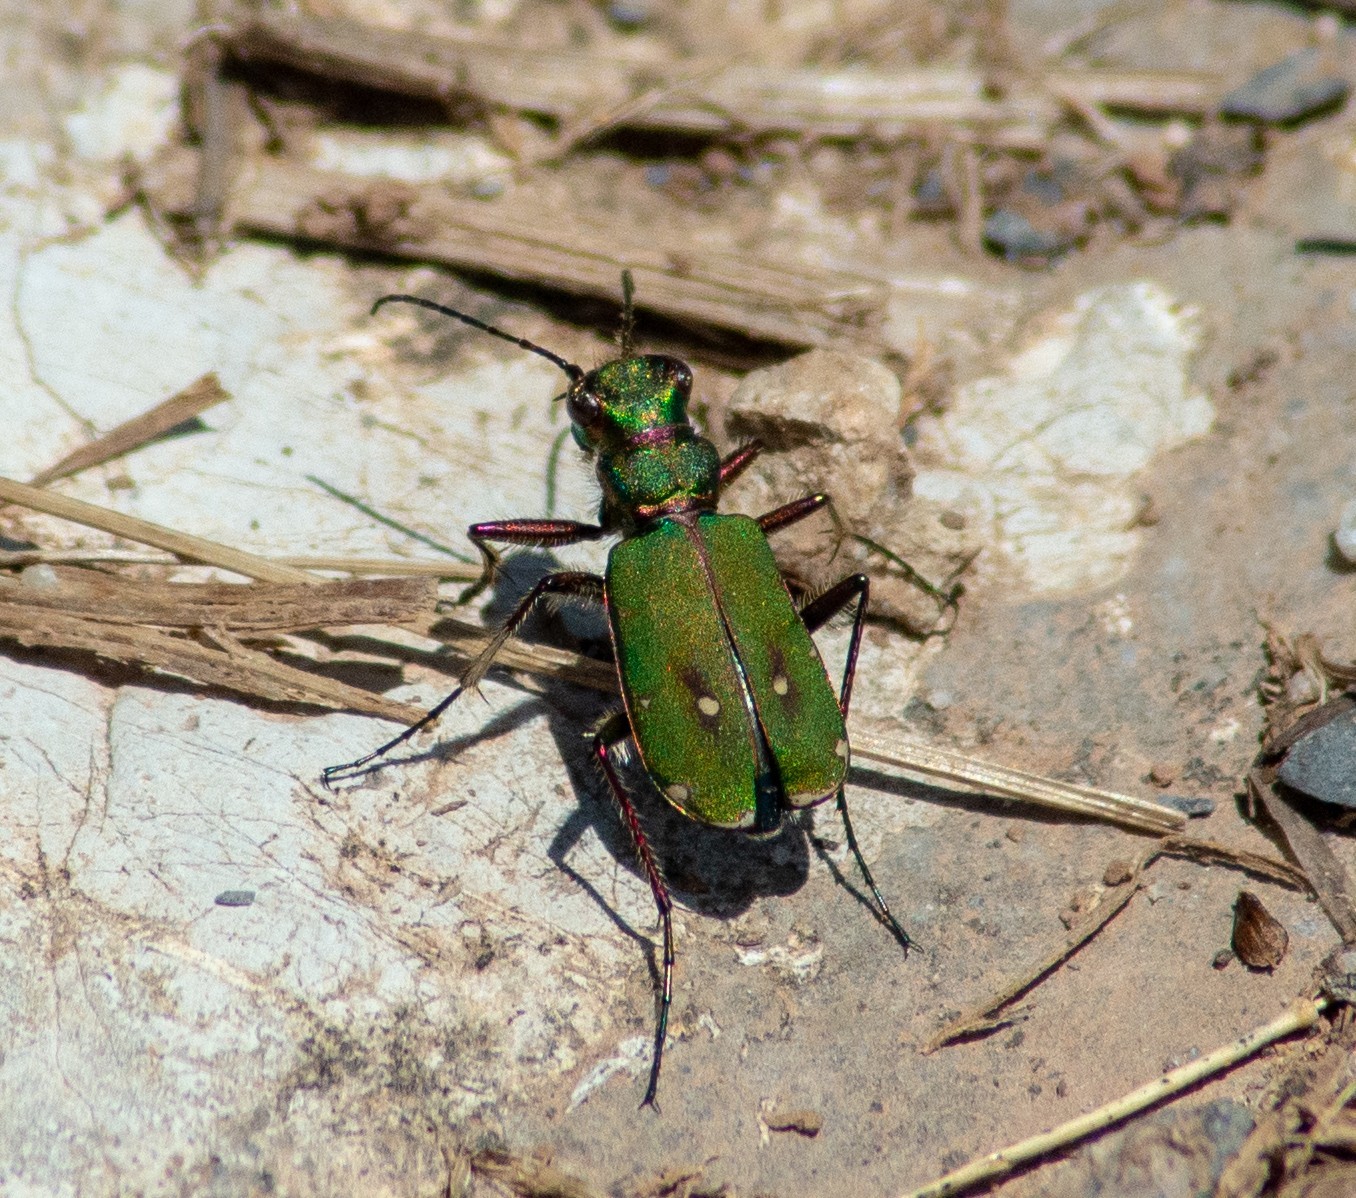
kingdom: Animalia
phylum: Arthropoda
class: Insecta
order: Coleoptera
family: Carabidae
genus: Cicindela
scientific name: Cicindela campestris
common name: Common tiger beetle
